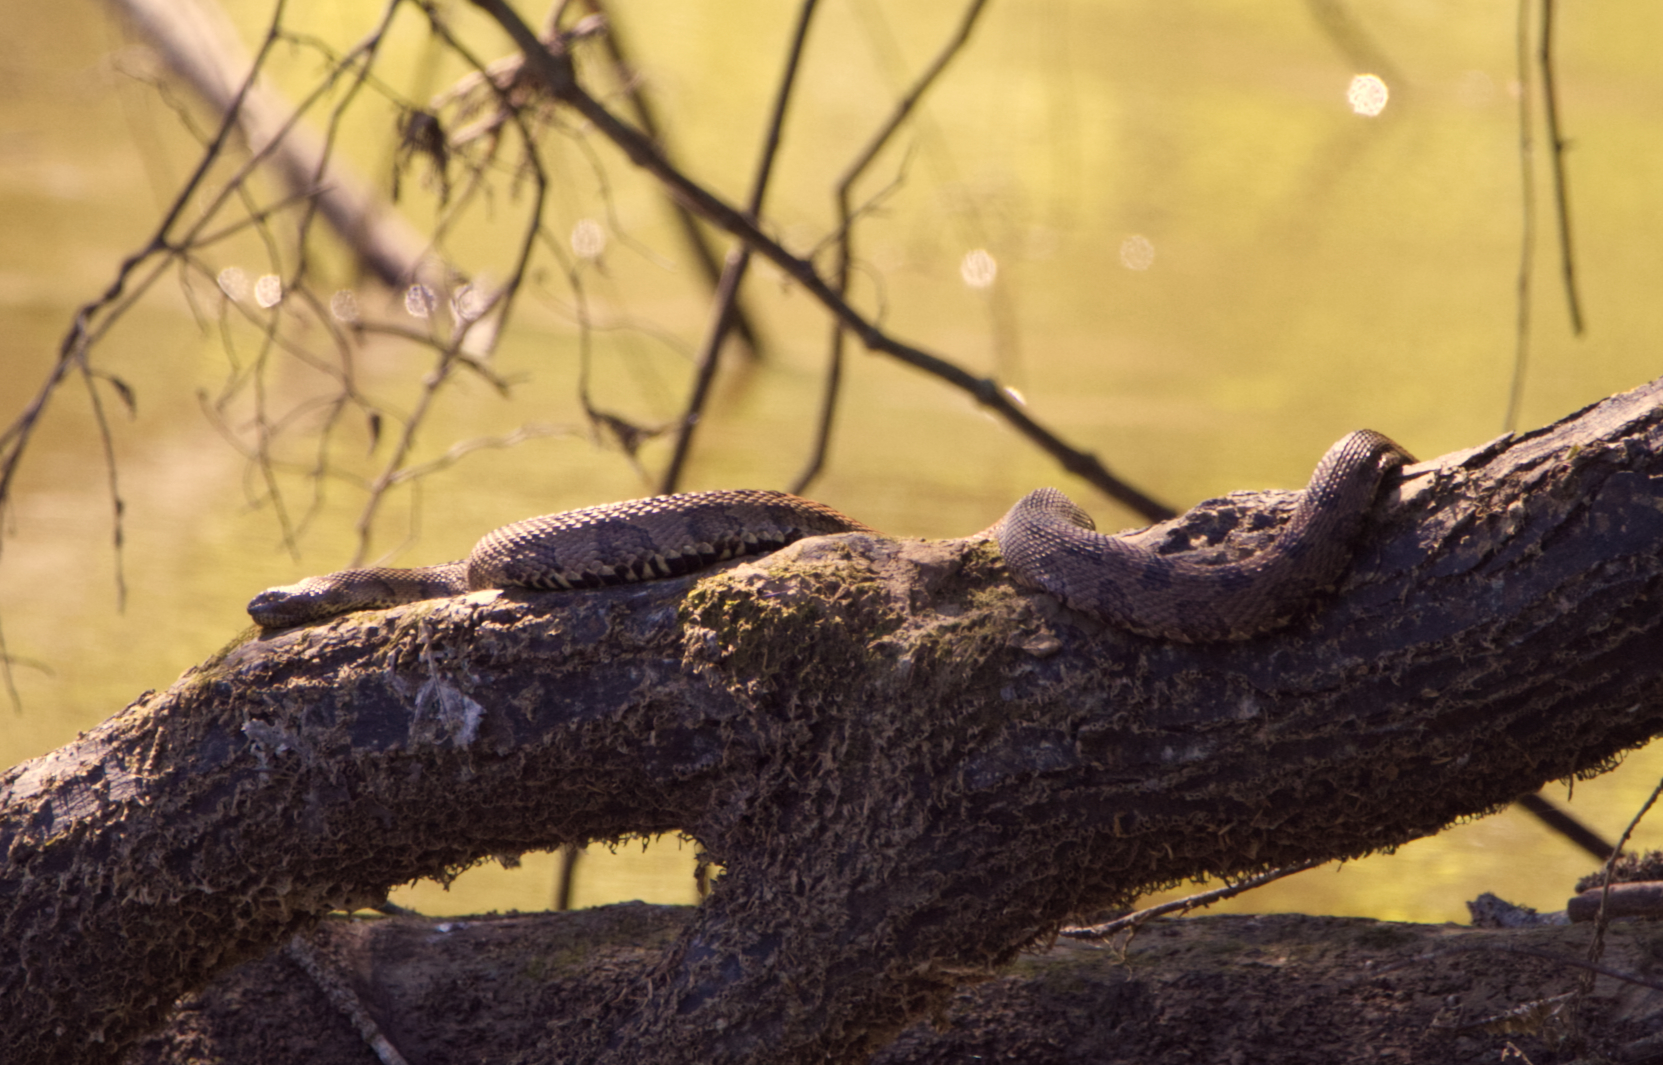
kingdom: Animalia
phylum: Chordata
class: Squamata
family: Colubridae
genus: Nerodia
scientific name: Nerodia taxispilota
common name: Brown water snake
